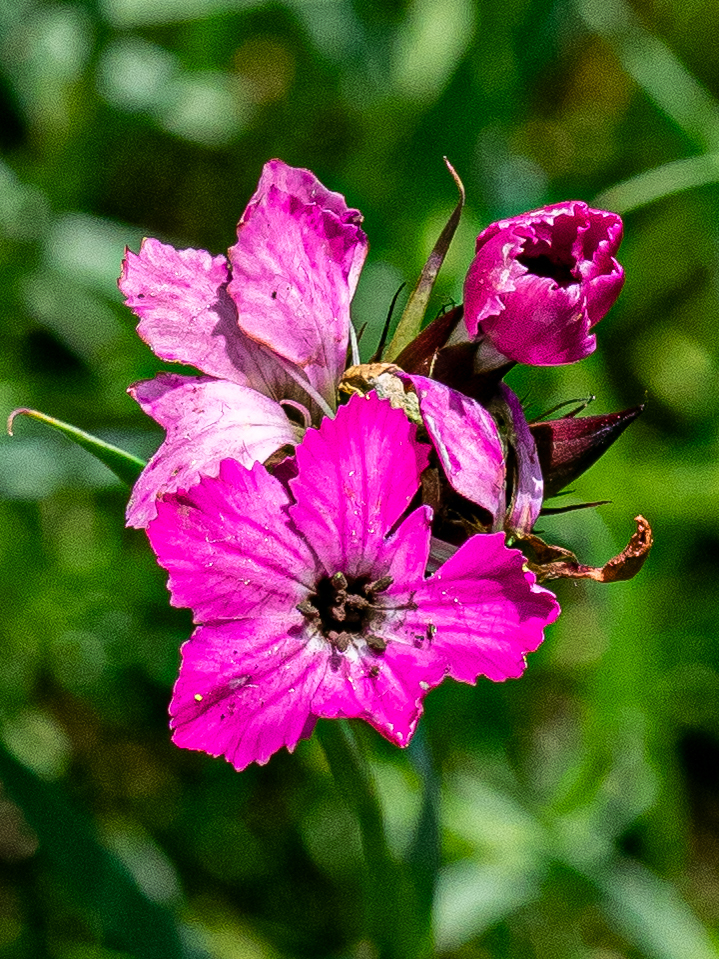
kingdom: Plantae
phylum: Tracheophyta
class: Magnoliopsida
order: Caryophyllales
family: Caryophyllaceae
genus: Dianthus
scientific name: Dianthus carthusianorum
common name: Carthusian pink
